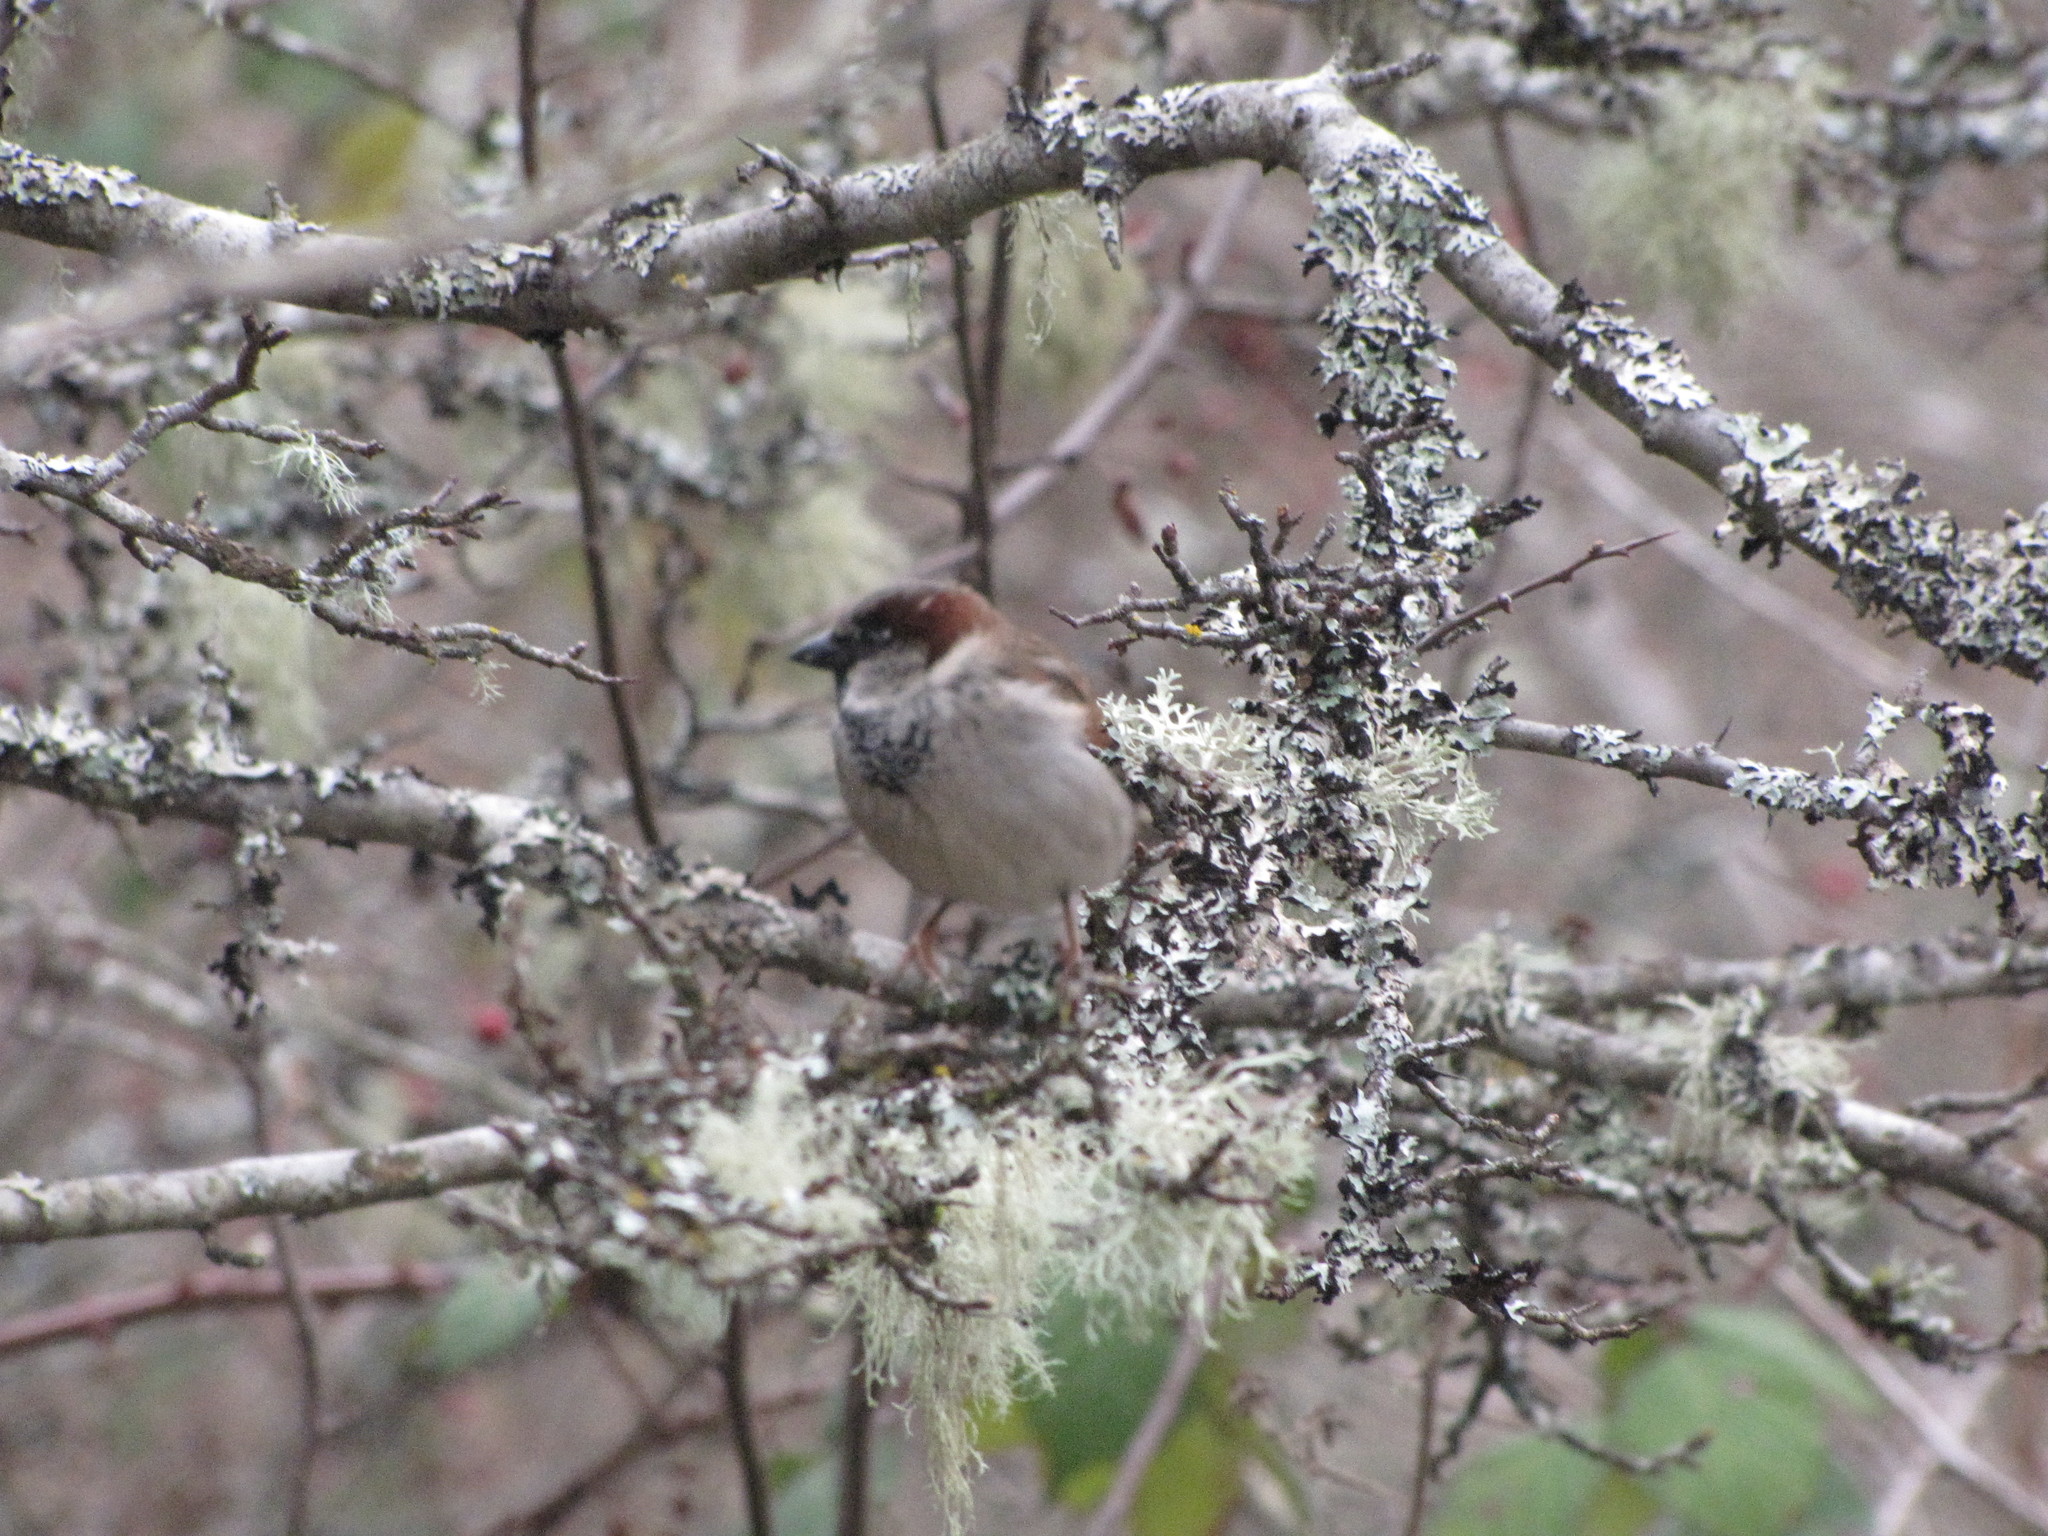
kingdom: Animalia
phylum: Chordata
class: Aves
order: Passeriformes
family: Passeridae
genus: Passer
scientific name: Passer domesticus
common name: House sparrow
